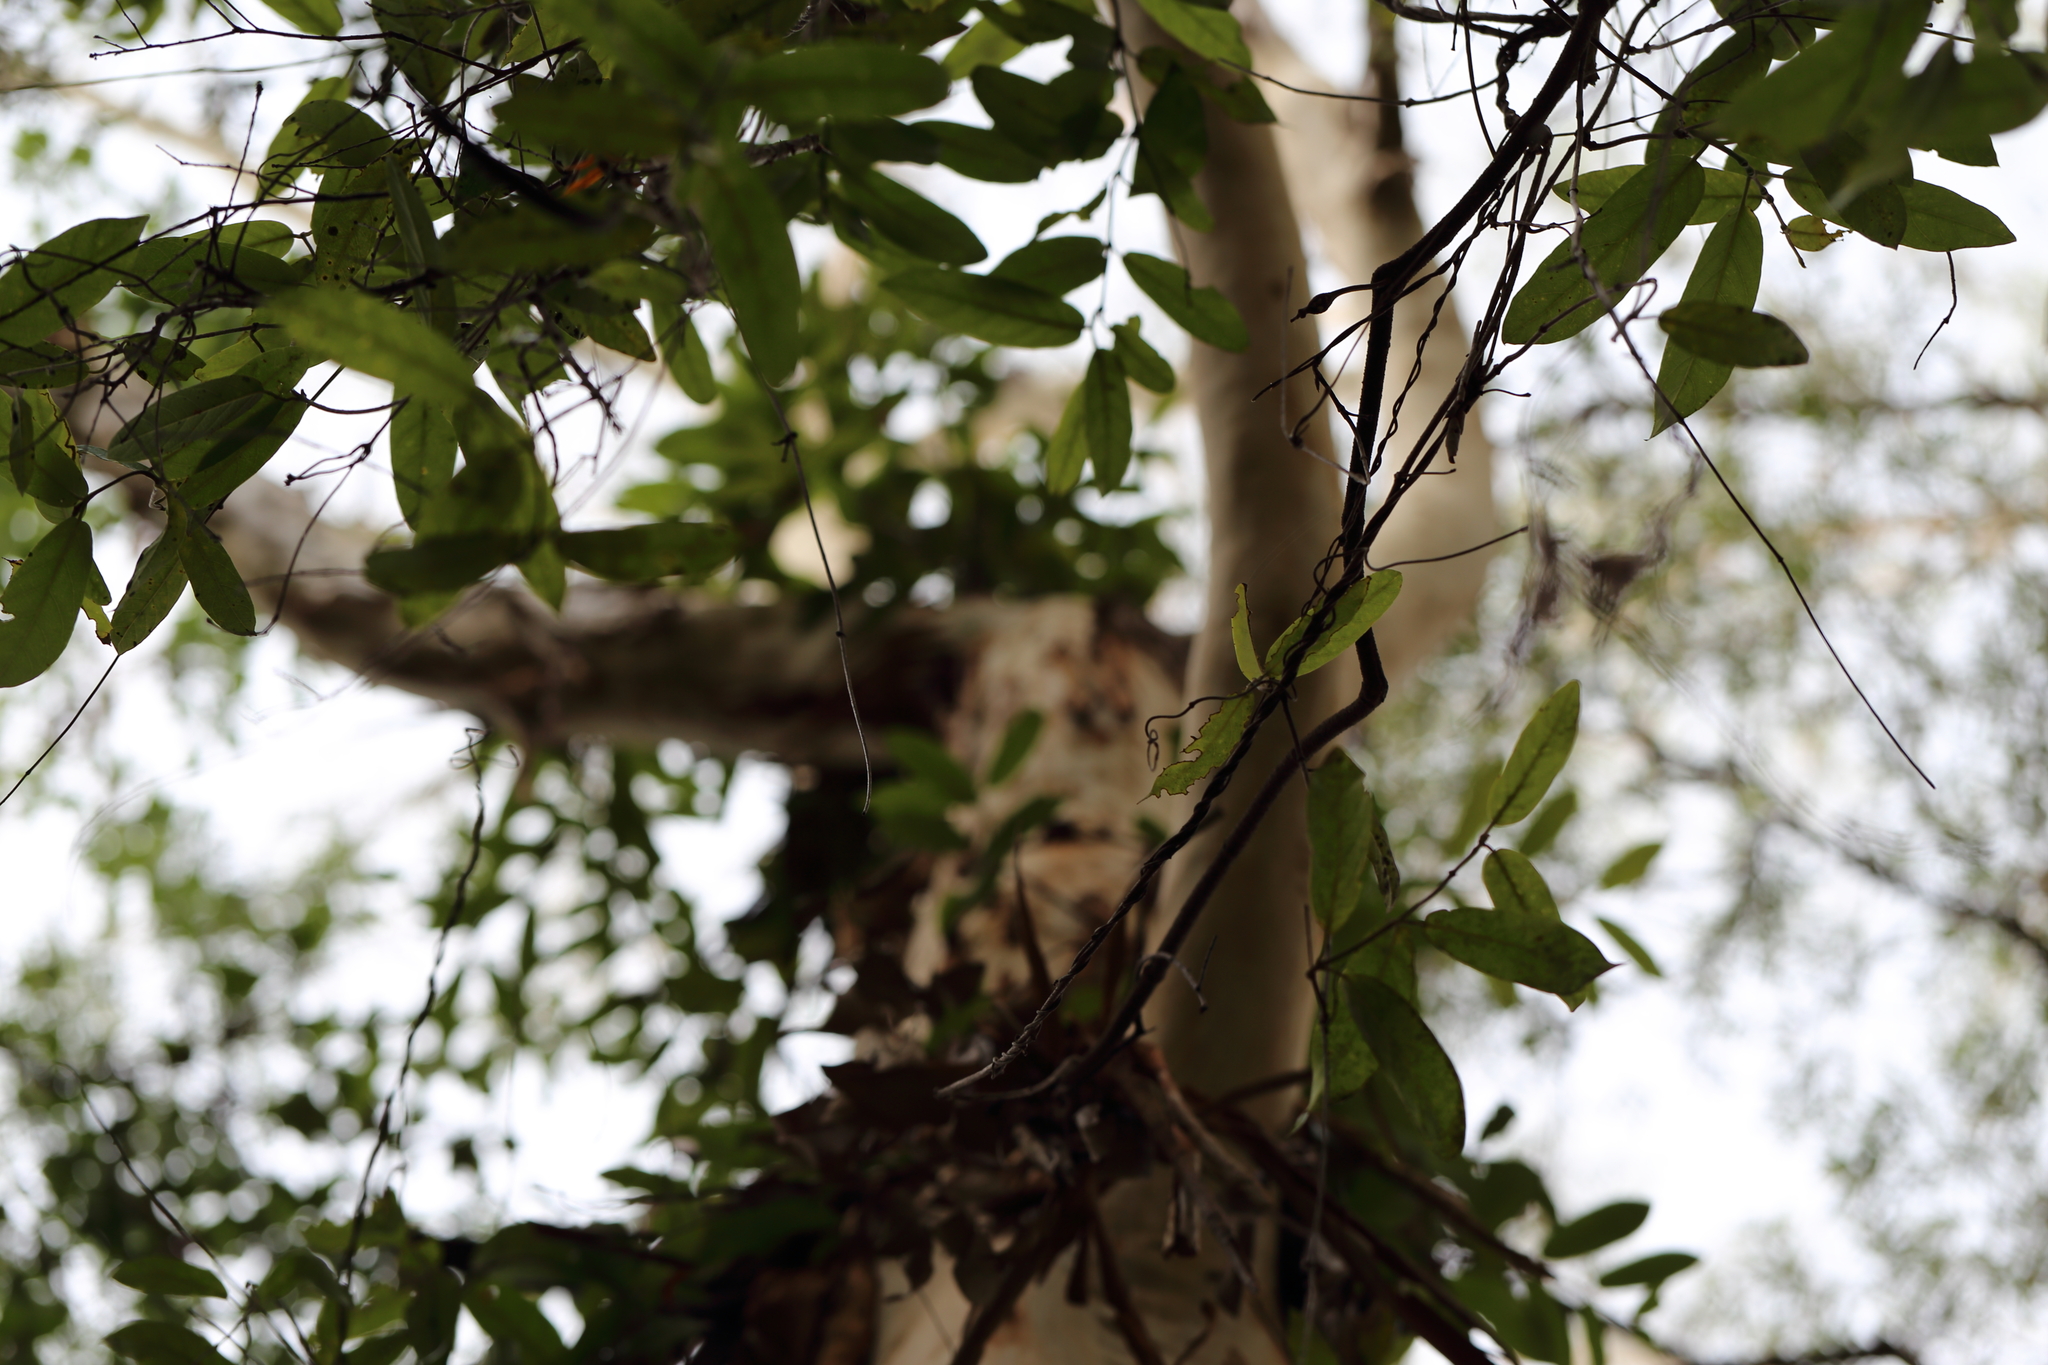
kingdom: Plantae
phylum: Tracheophyta
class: Magnoliopsida
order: Myrtales
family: Myrtaceae
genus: Eucalyptus
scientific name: Eucalyptus racemosa
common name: Scribbly gum
